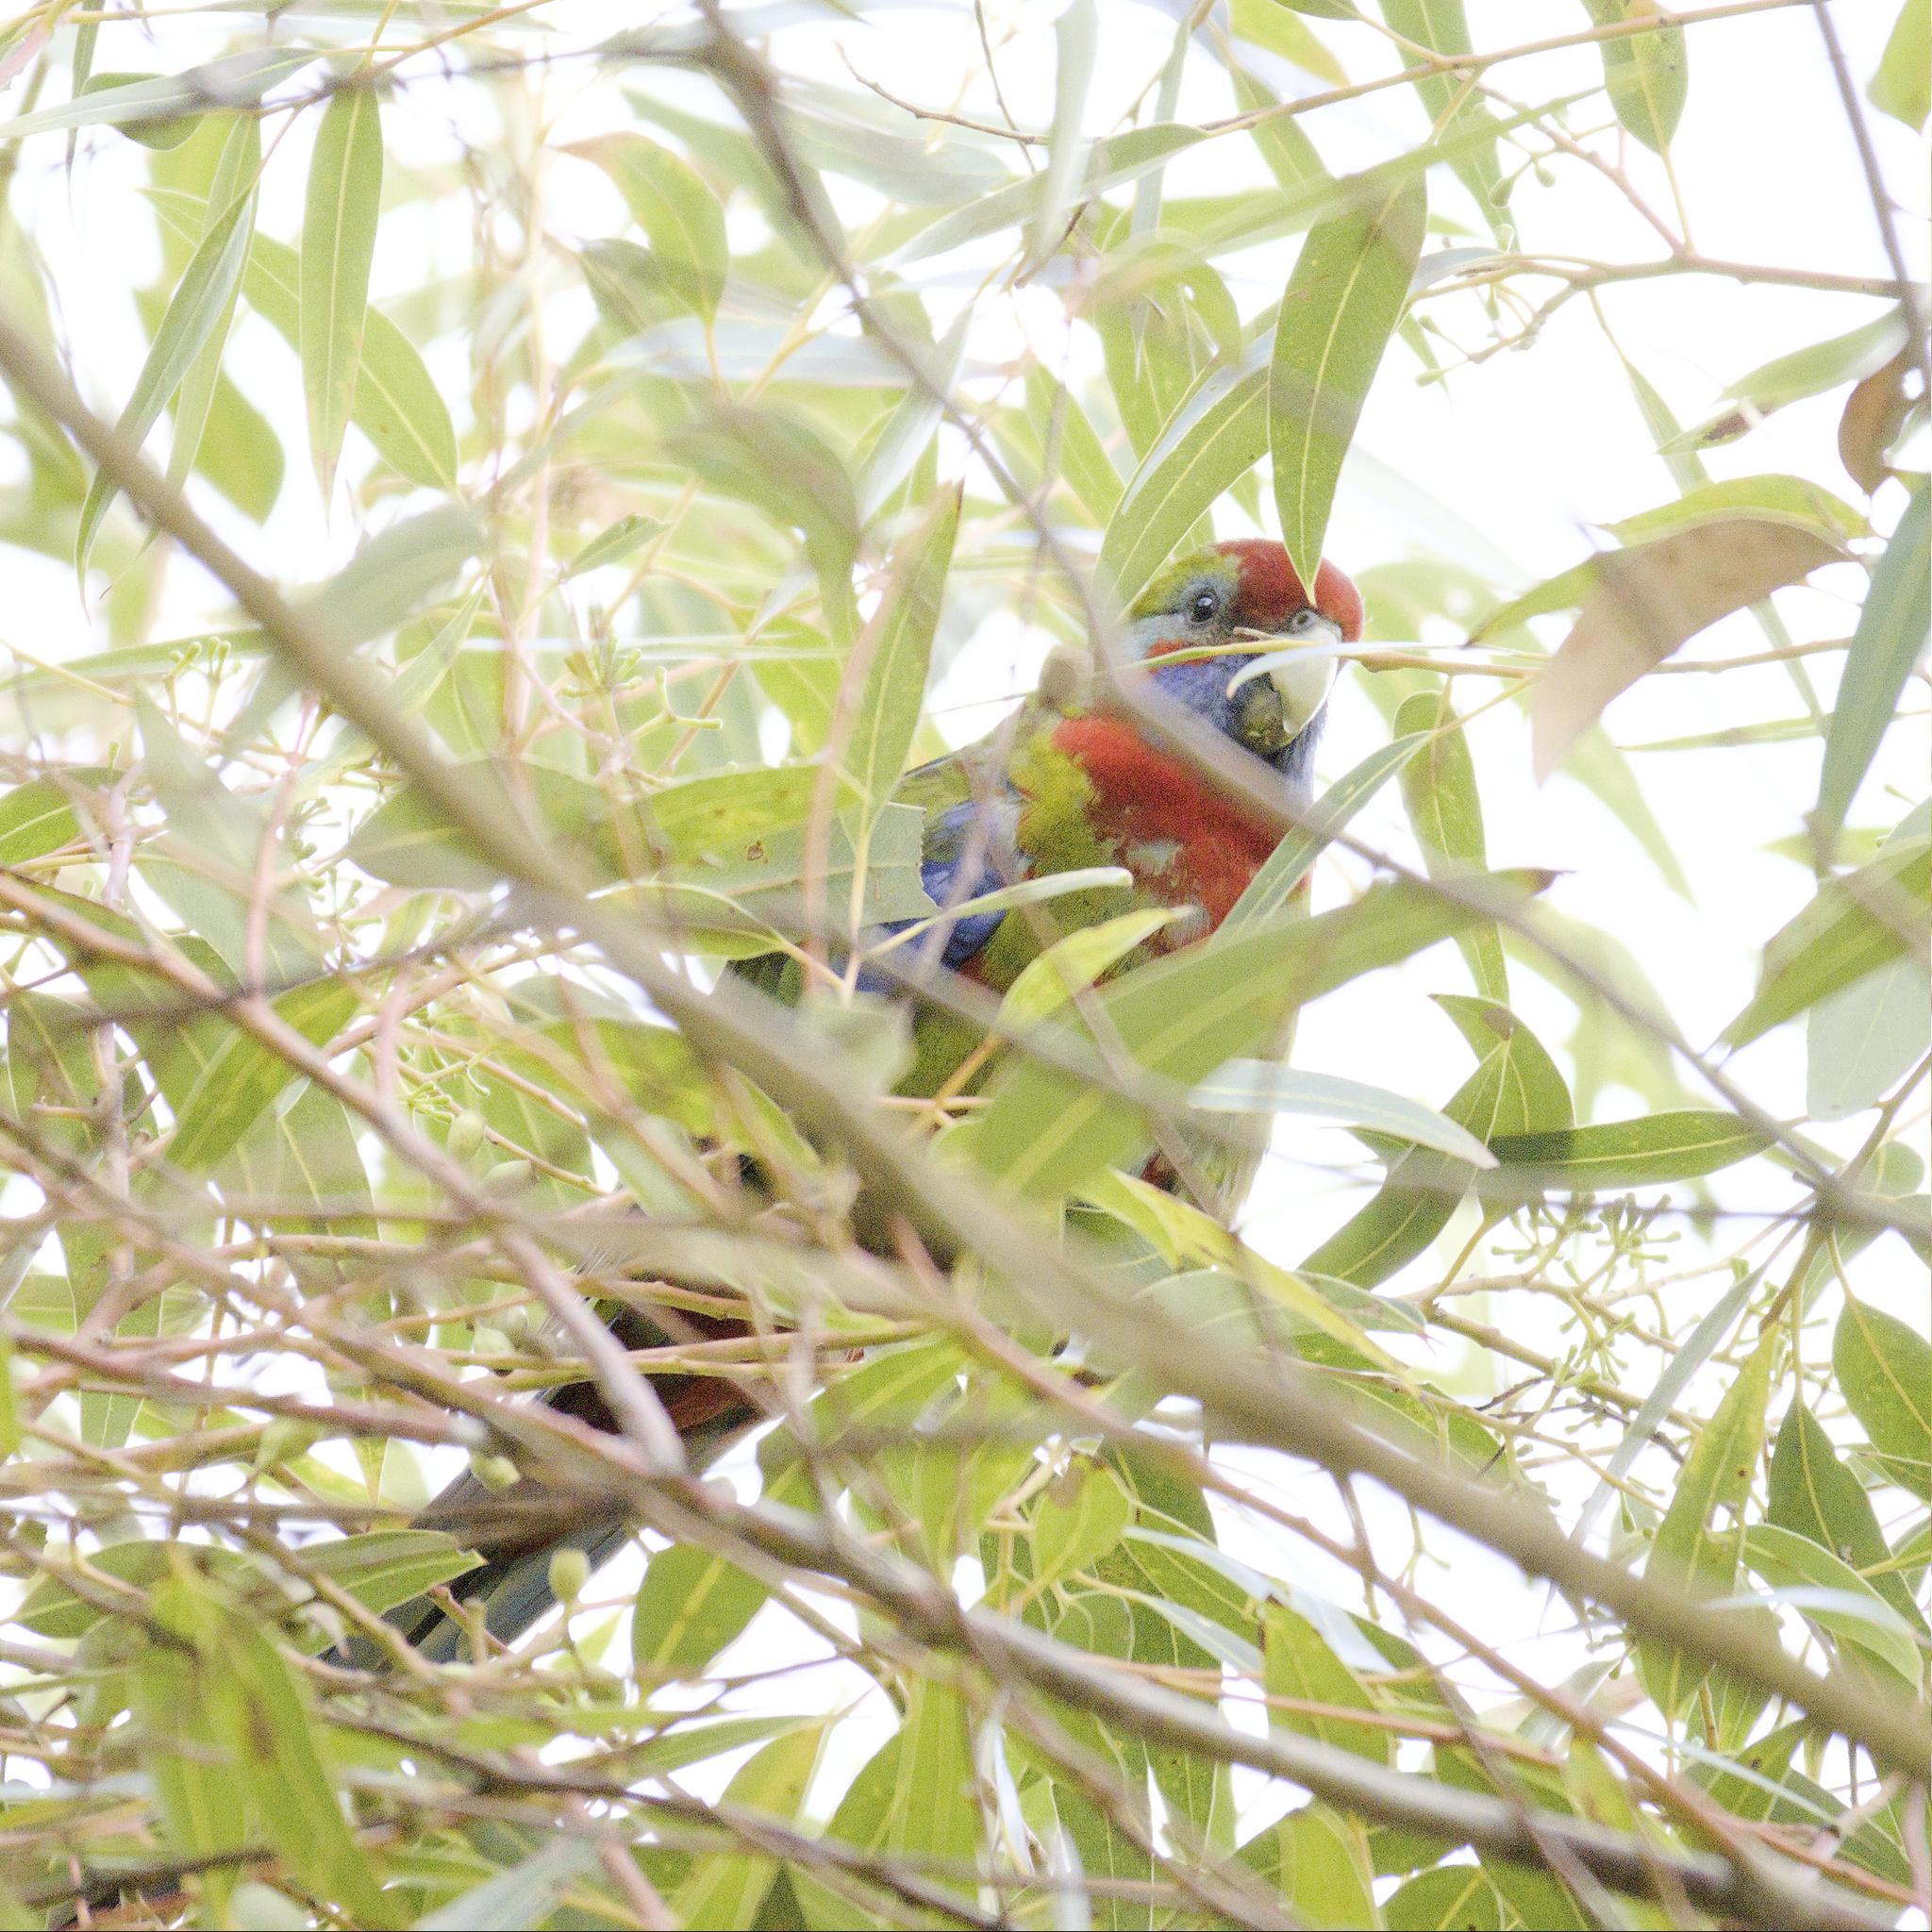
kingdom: Animalia
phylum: Chordata
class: Aves
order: Psittaciformes
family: Psittacidae
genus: Platycercus
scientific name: Platycercus elegans
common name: Crimson rosella
